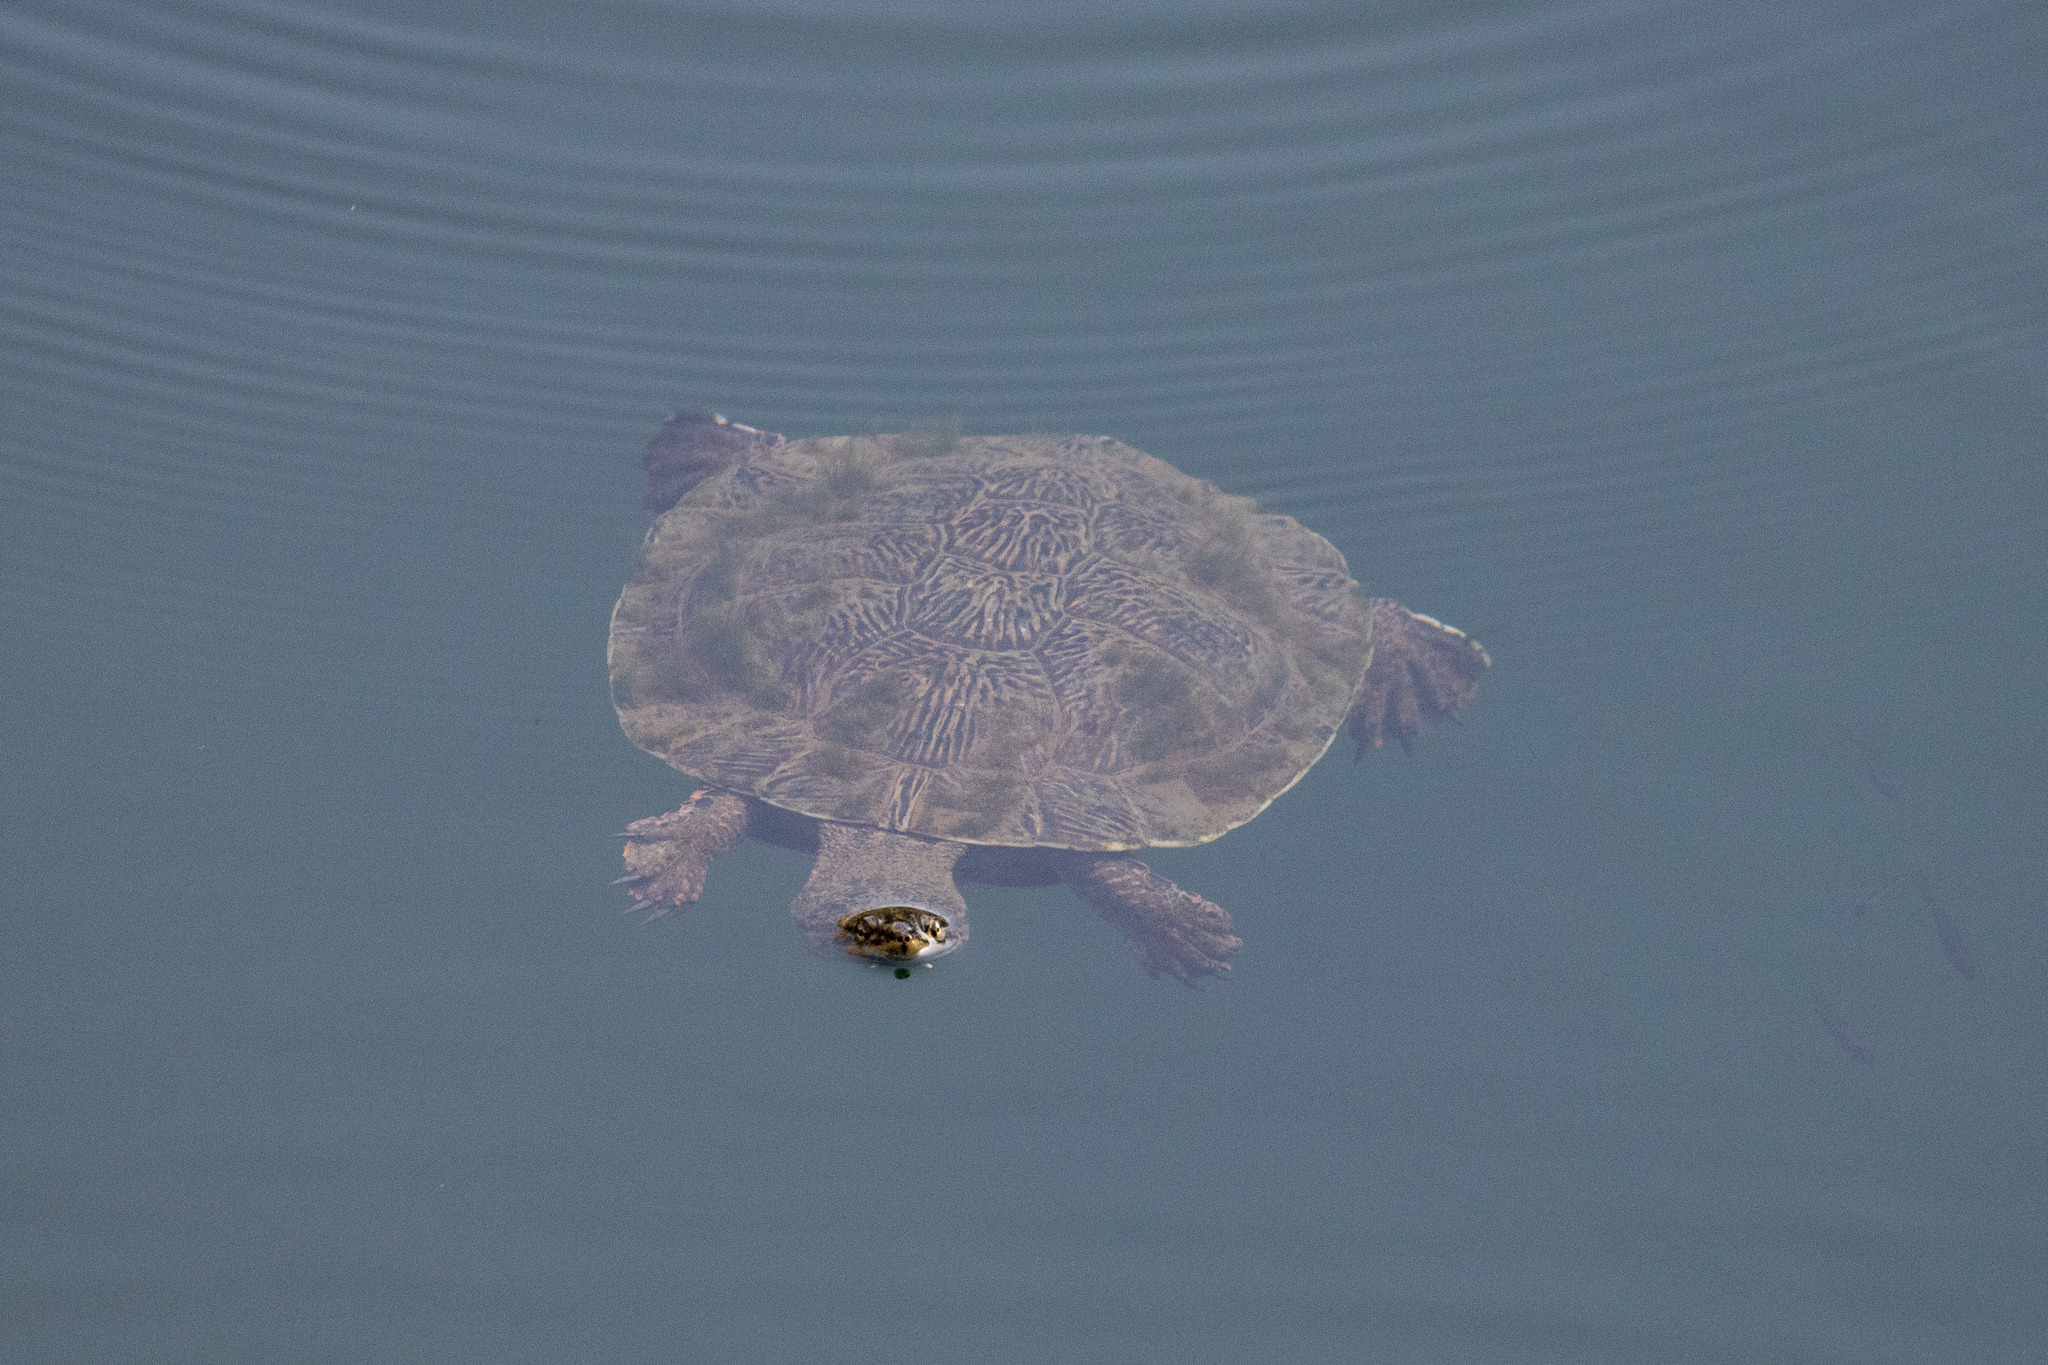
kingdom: Animalia
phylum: Chordata
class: Testudines
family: Chelidae
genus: Phrynops
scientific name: Phrynops geoffroanus
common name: Side-necked turtle of geoffroy
